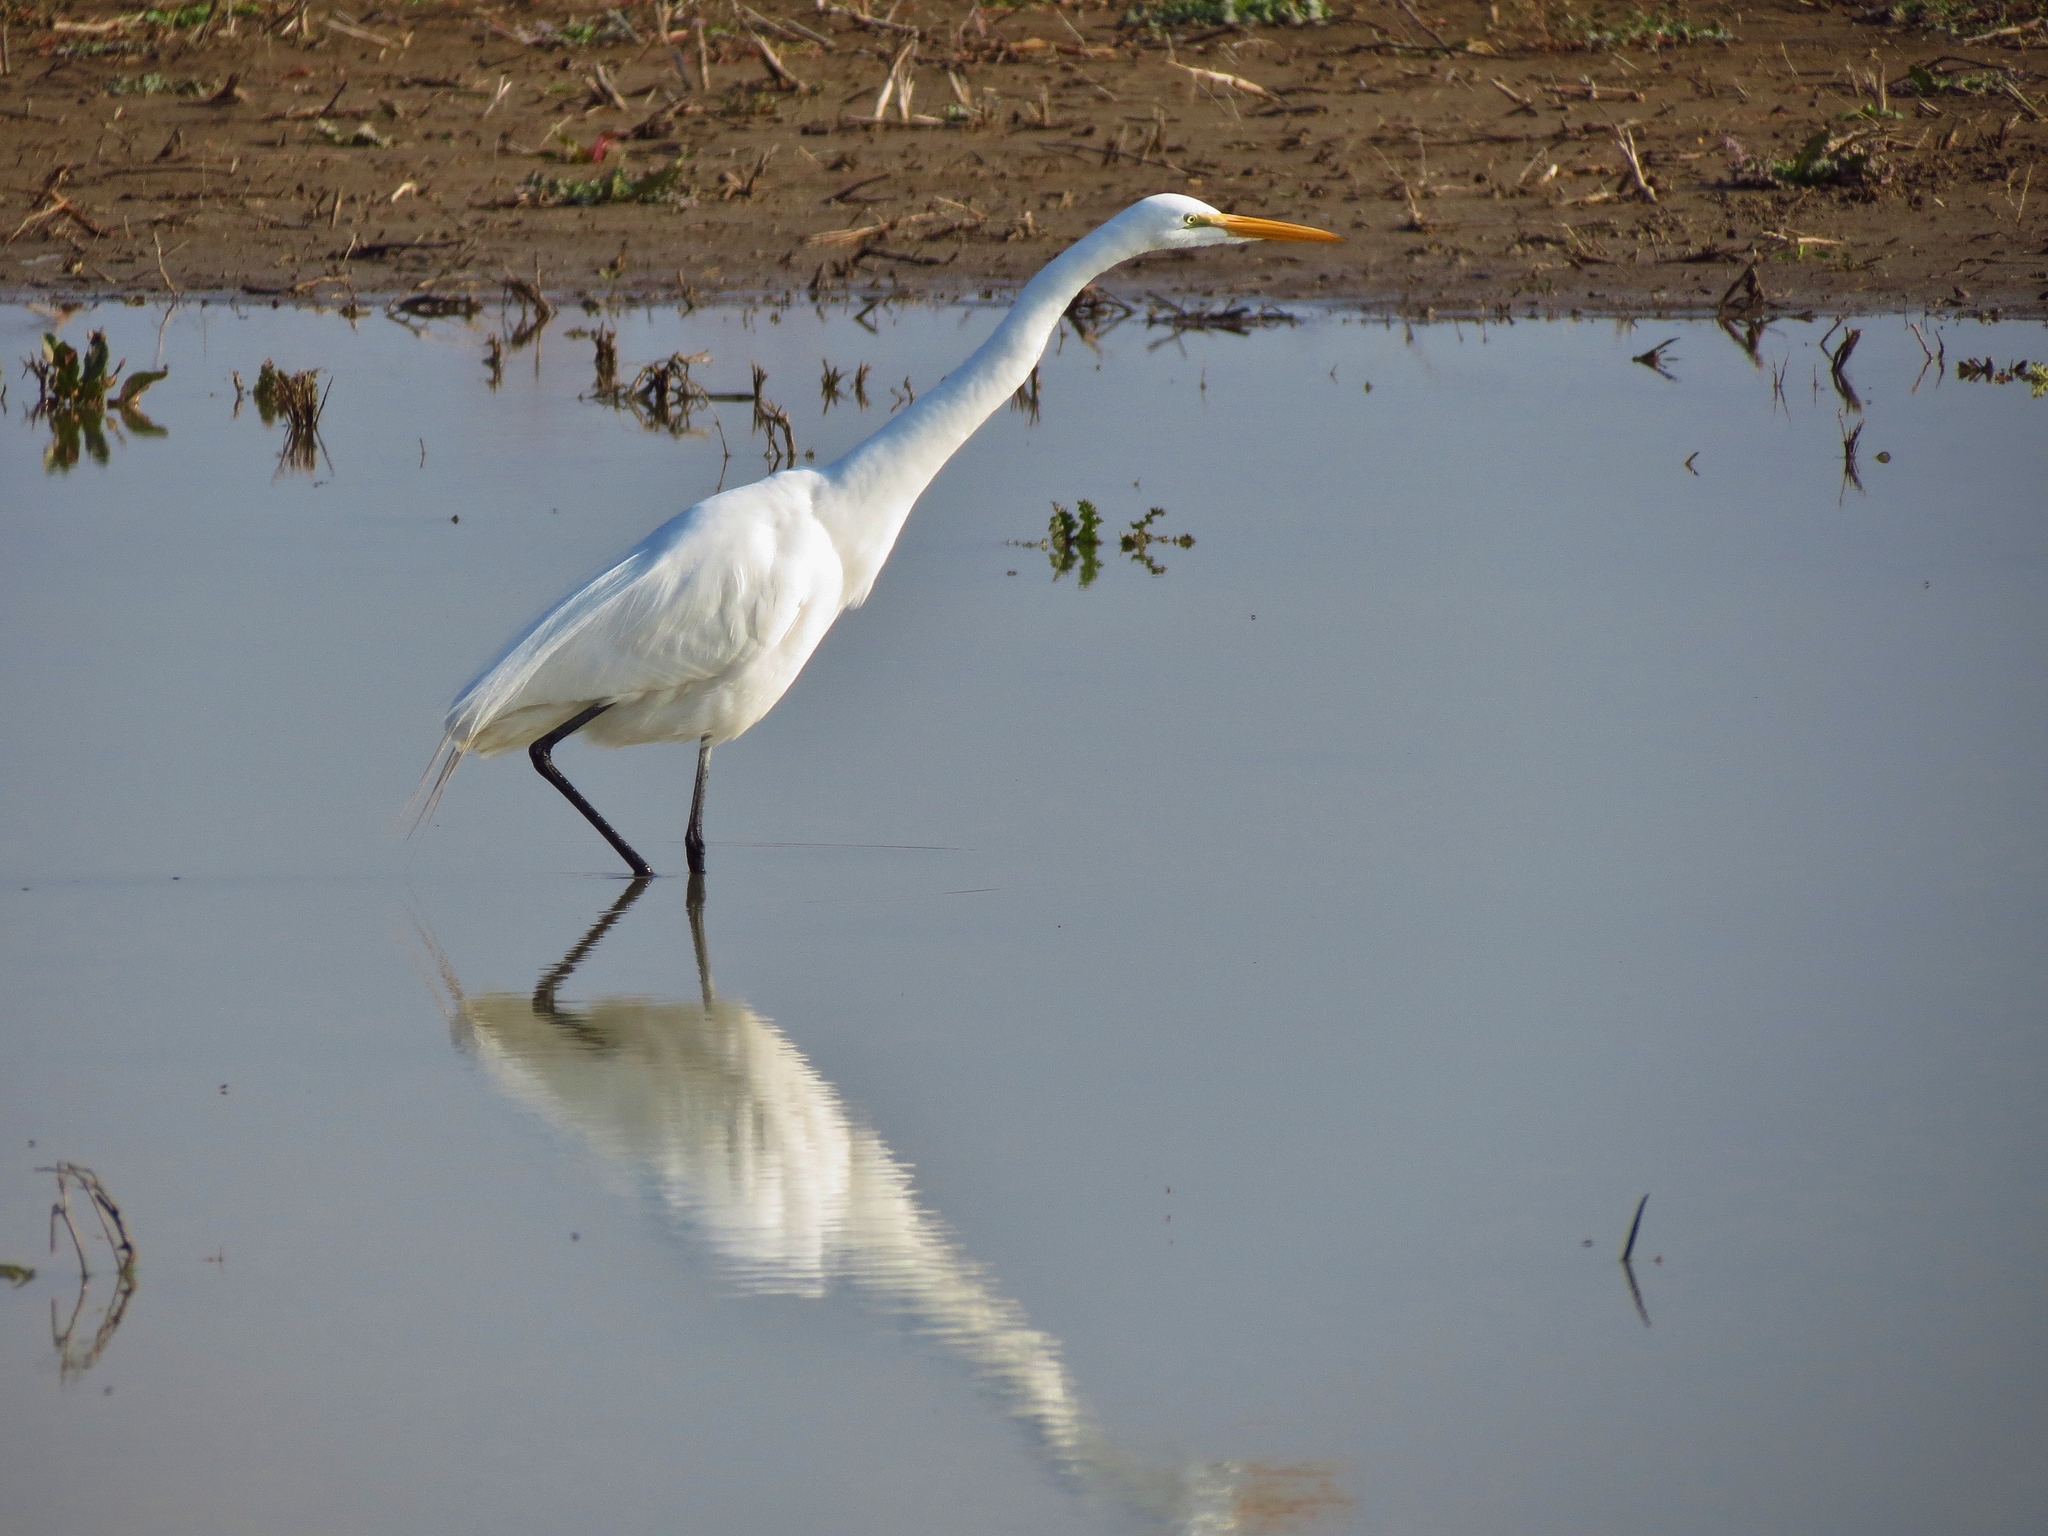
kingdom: Animalia
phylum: Chordata
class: Aves
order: Pelecaniformes
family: Ardeidae
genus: Ardea
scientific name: Ardea alba
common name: Great egret
